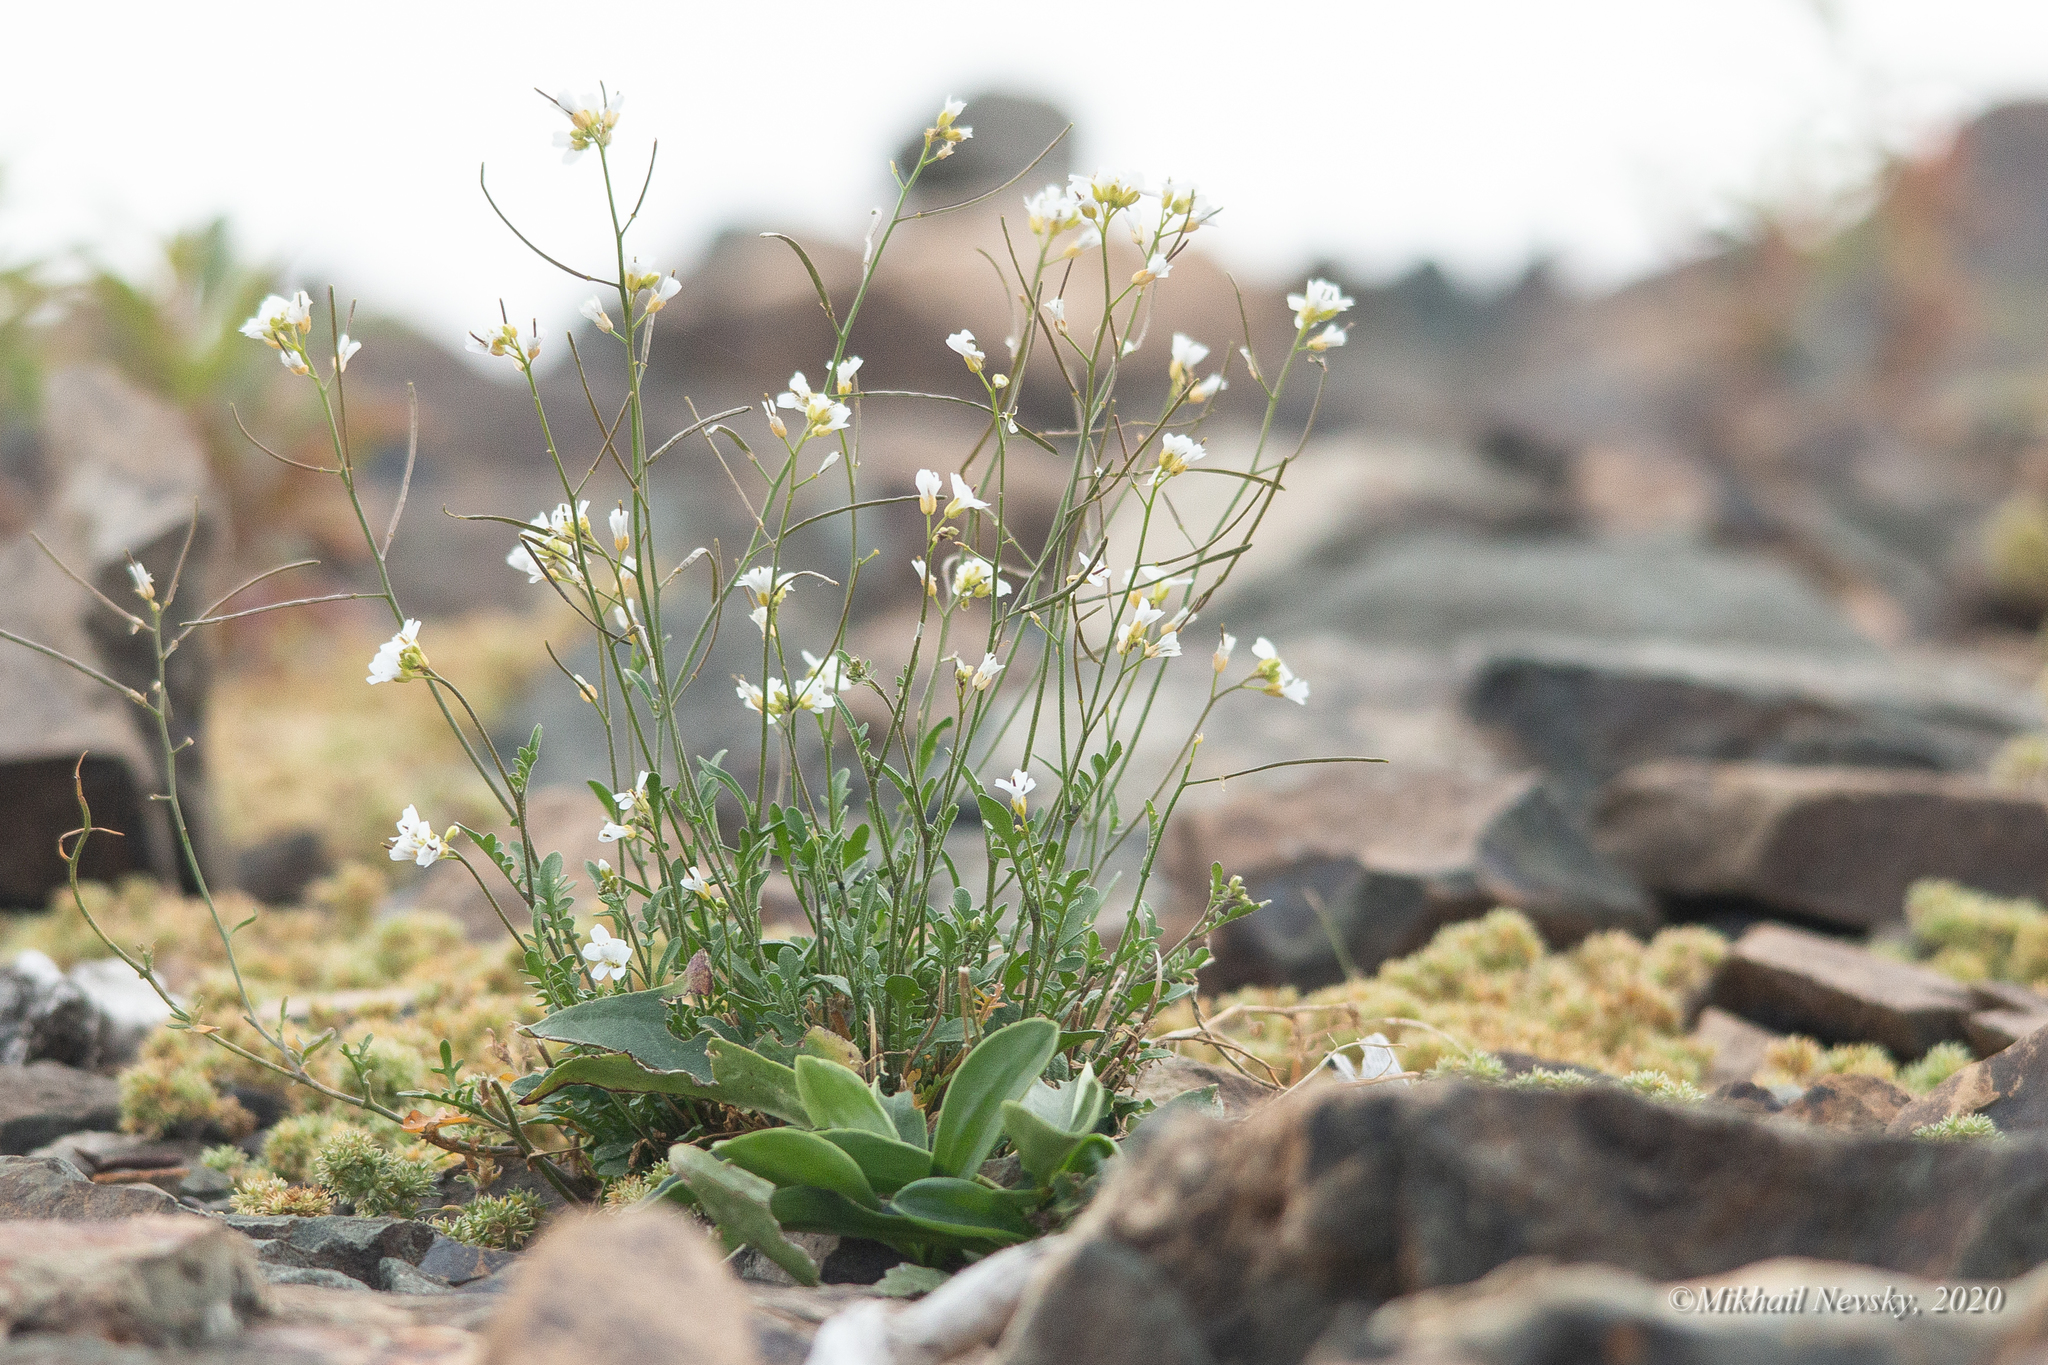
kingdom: Plantae
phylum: Tracheophyta
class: Magnoliopsida
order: Brassicales
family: Brassicaceae
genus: Murbeckiella
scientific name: Murbeckiella huetii
